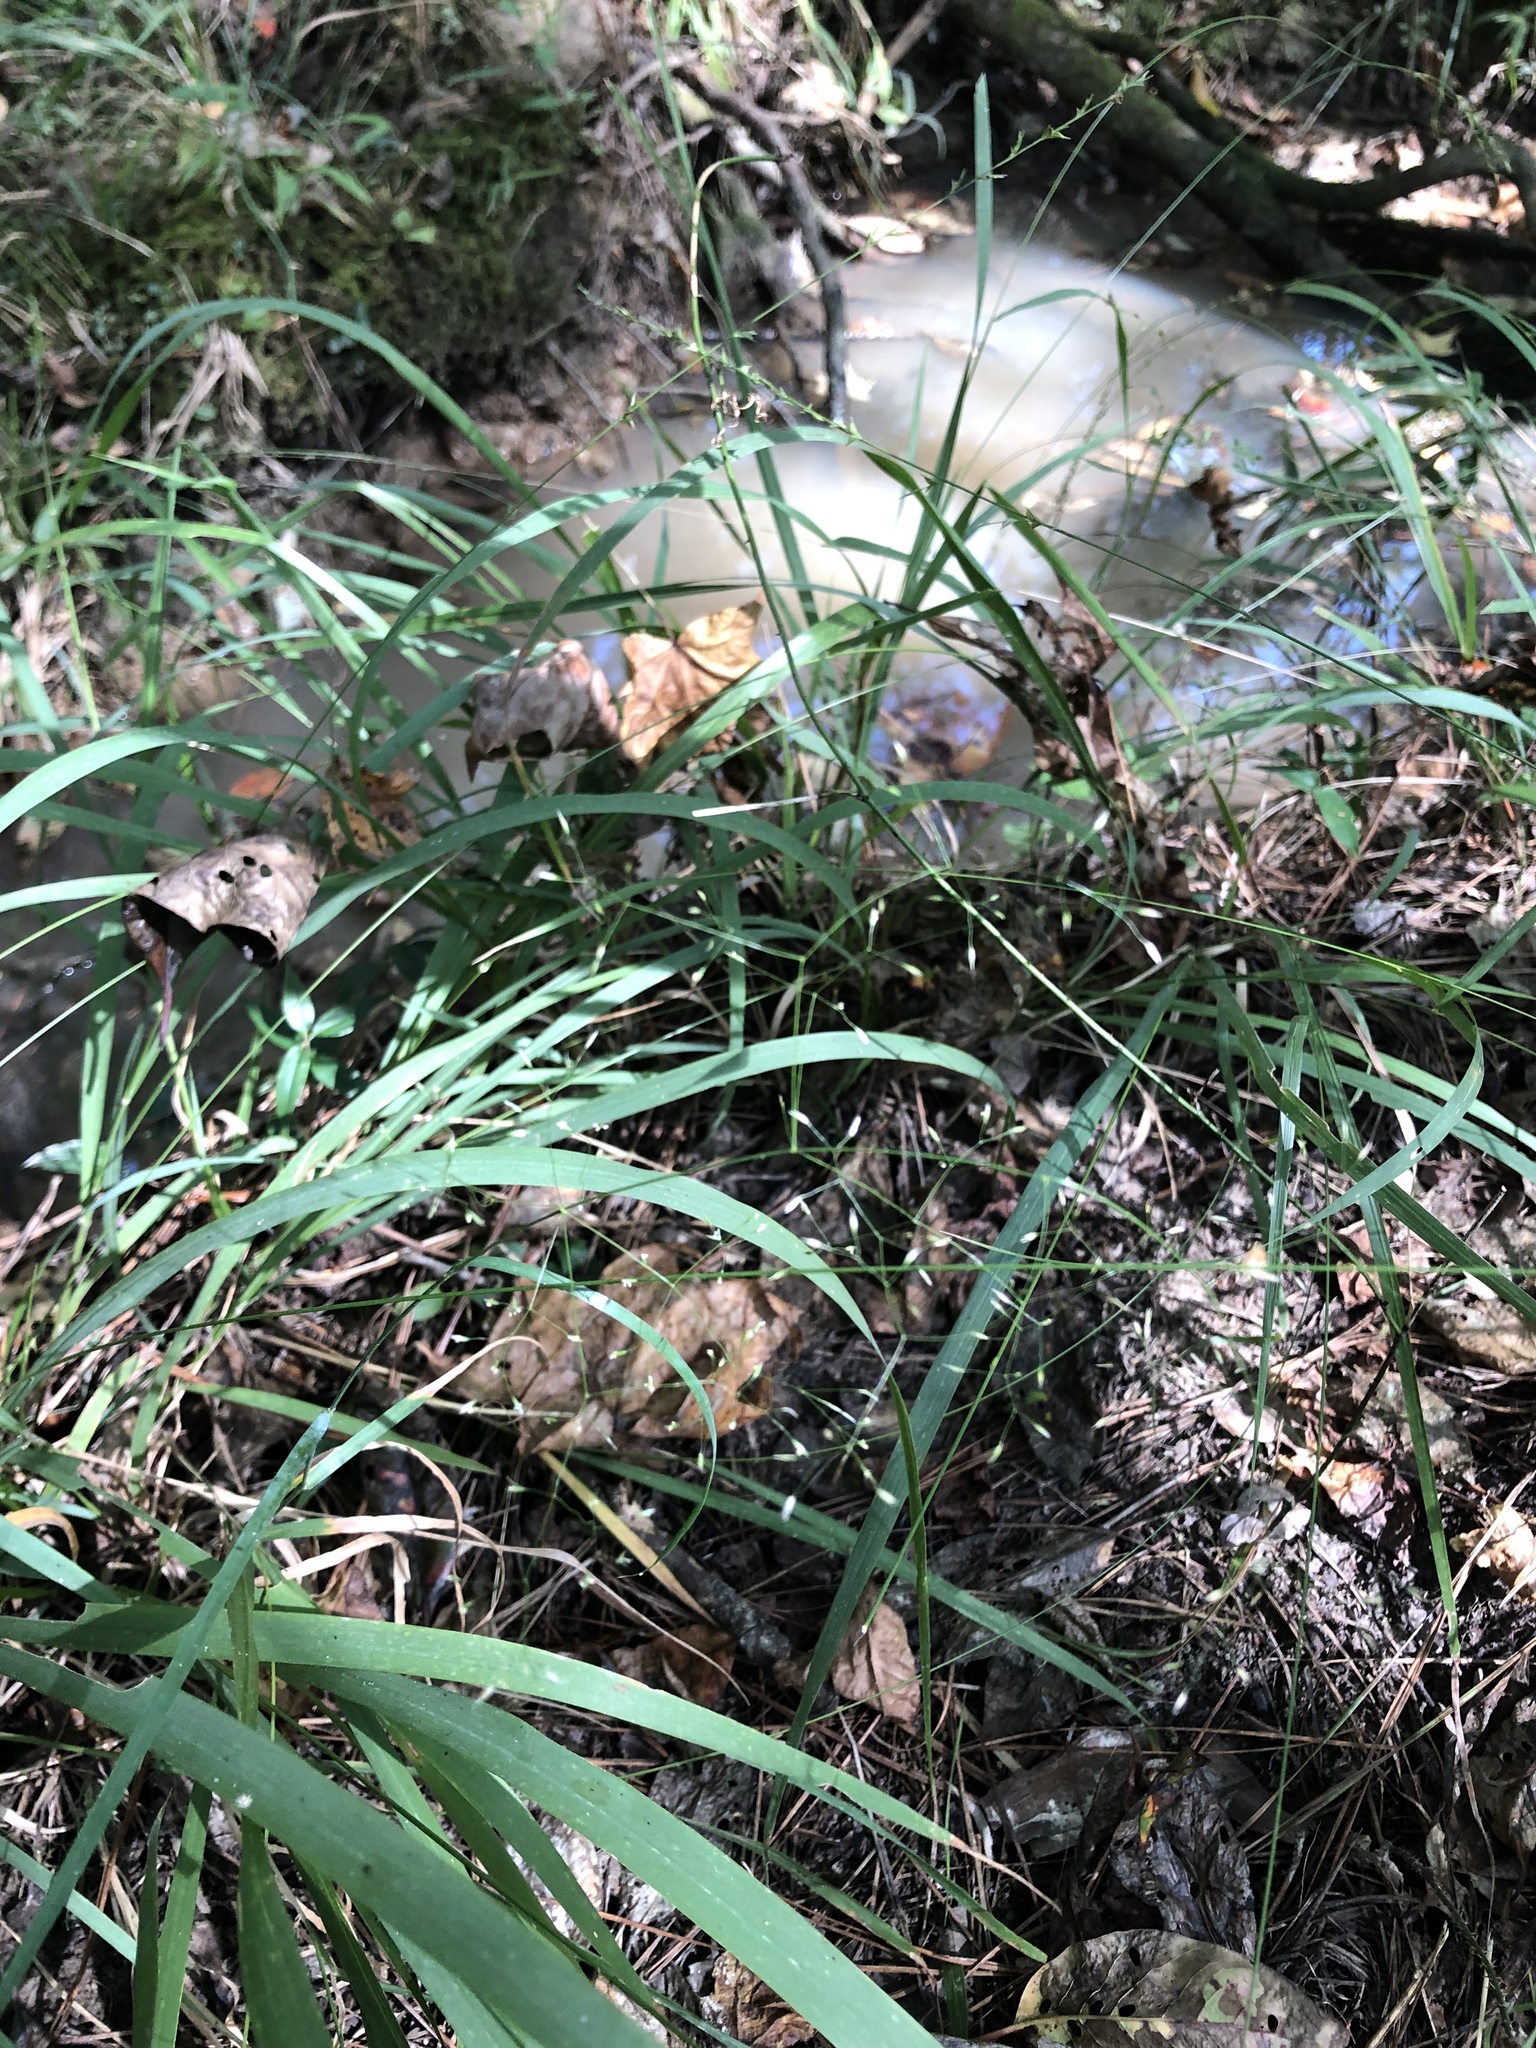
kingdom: Plantae
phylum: Tracheophyta
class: Liliopsida
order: Poales
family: Poaceae
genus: Agrostis
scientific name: Agrostis perennans
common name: Autumn bent
